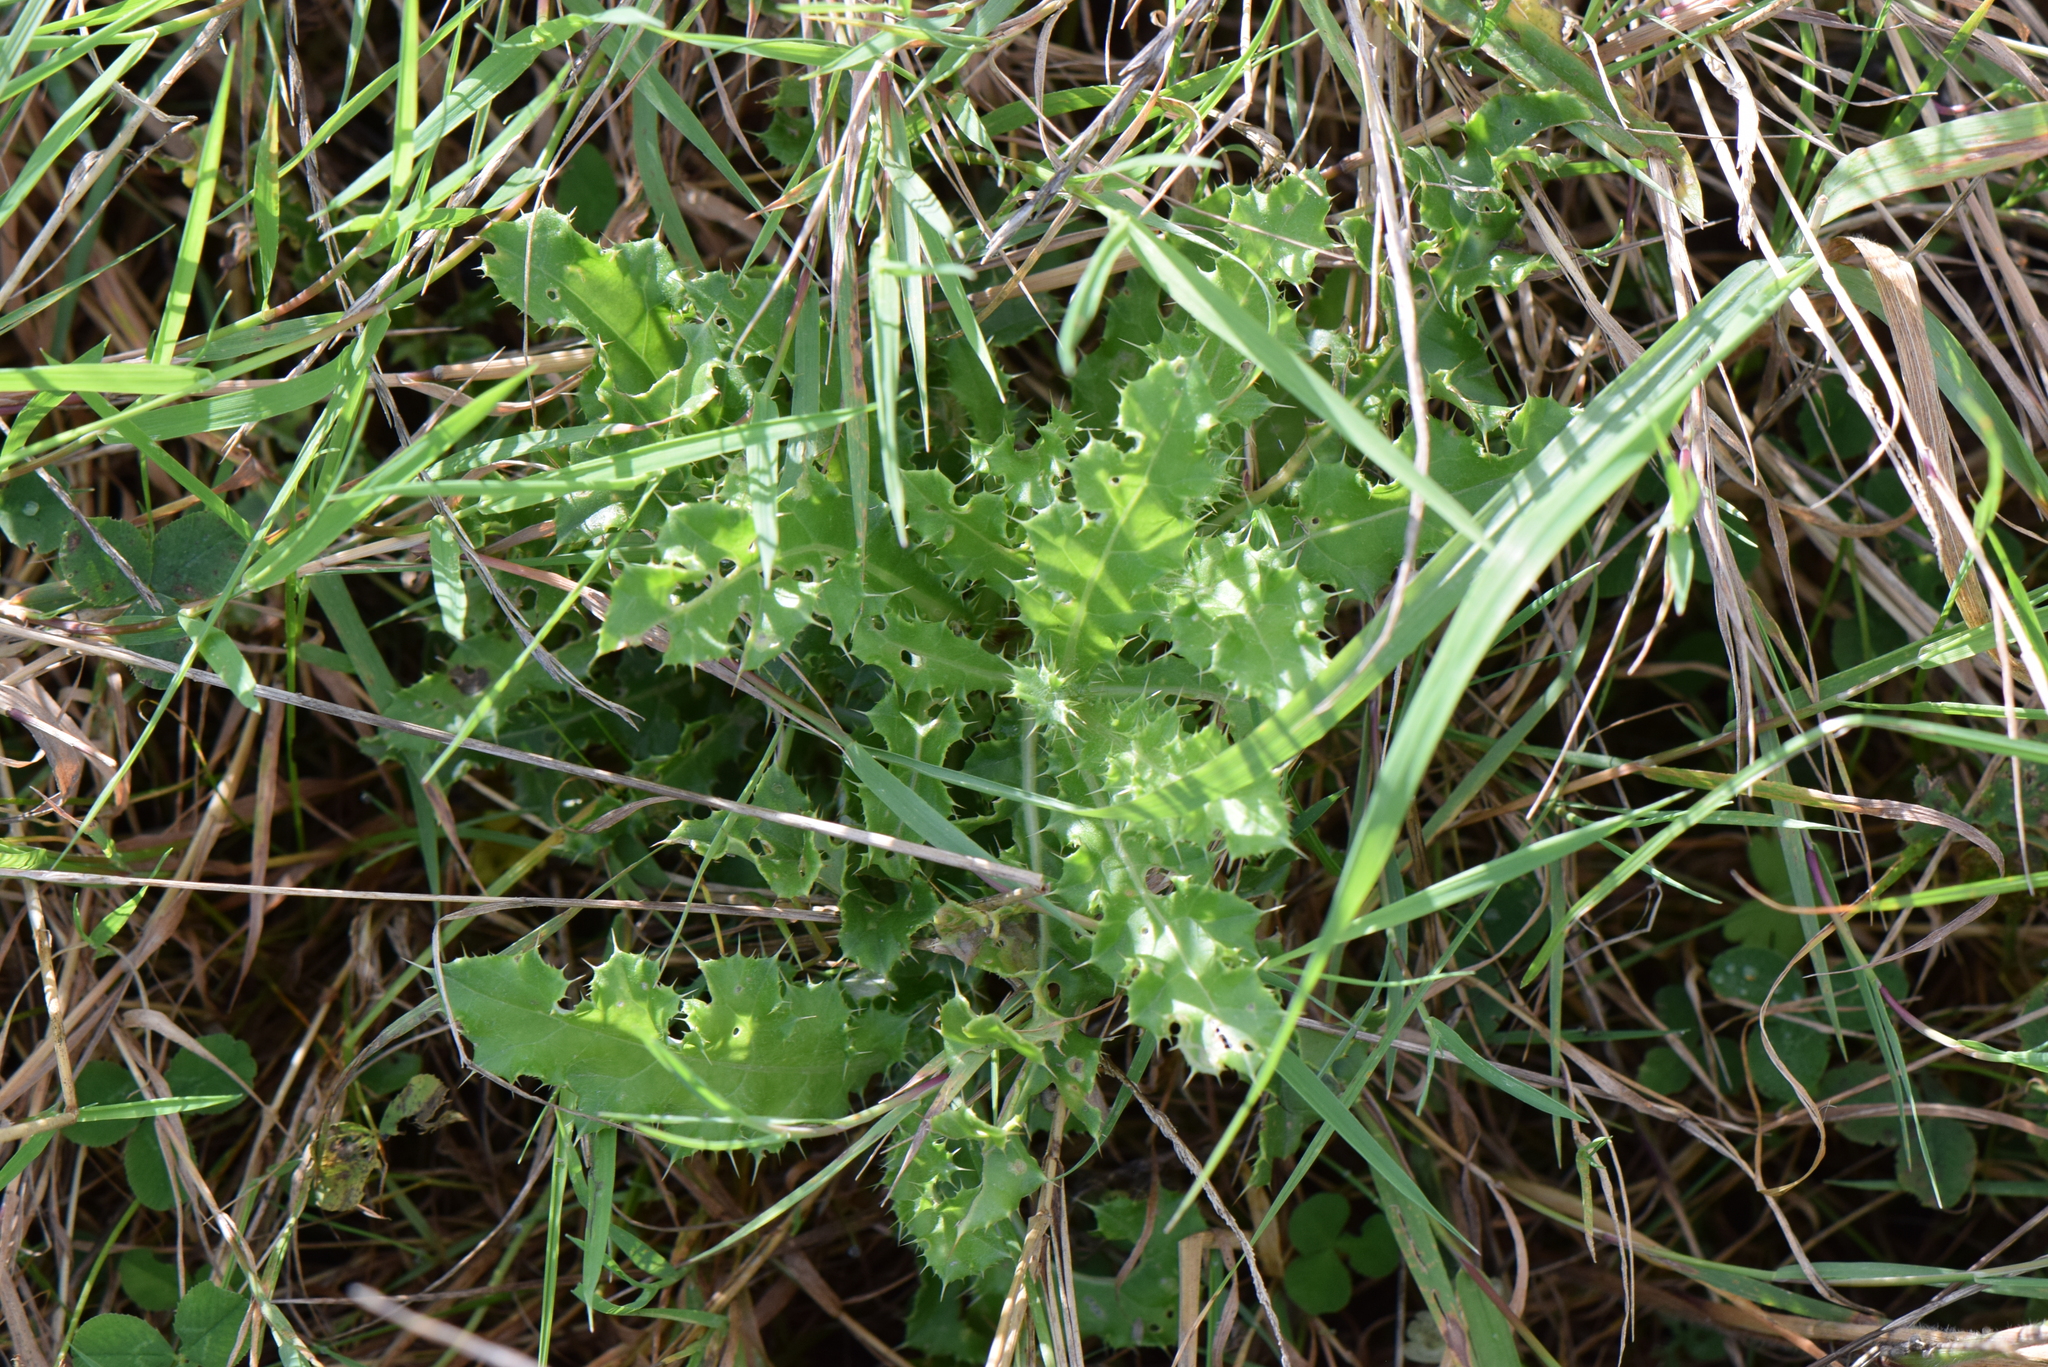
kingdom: Plantae
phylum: Tracheophyta
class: Magnoliopsida
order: Asterales
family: Asteraceae
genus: Cirsium
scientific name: Cirsium arvense
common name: Creeping thistle
